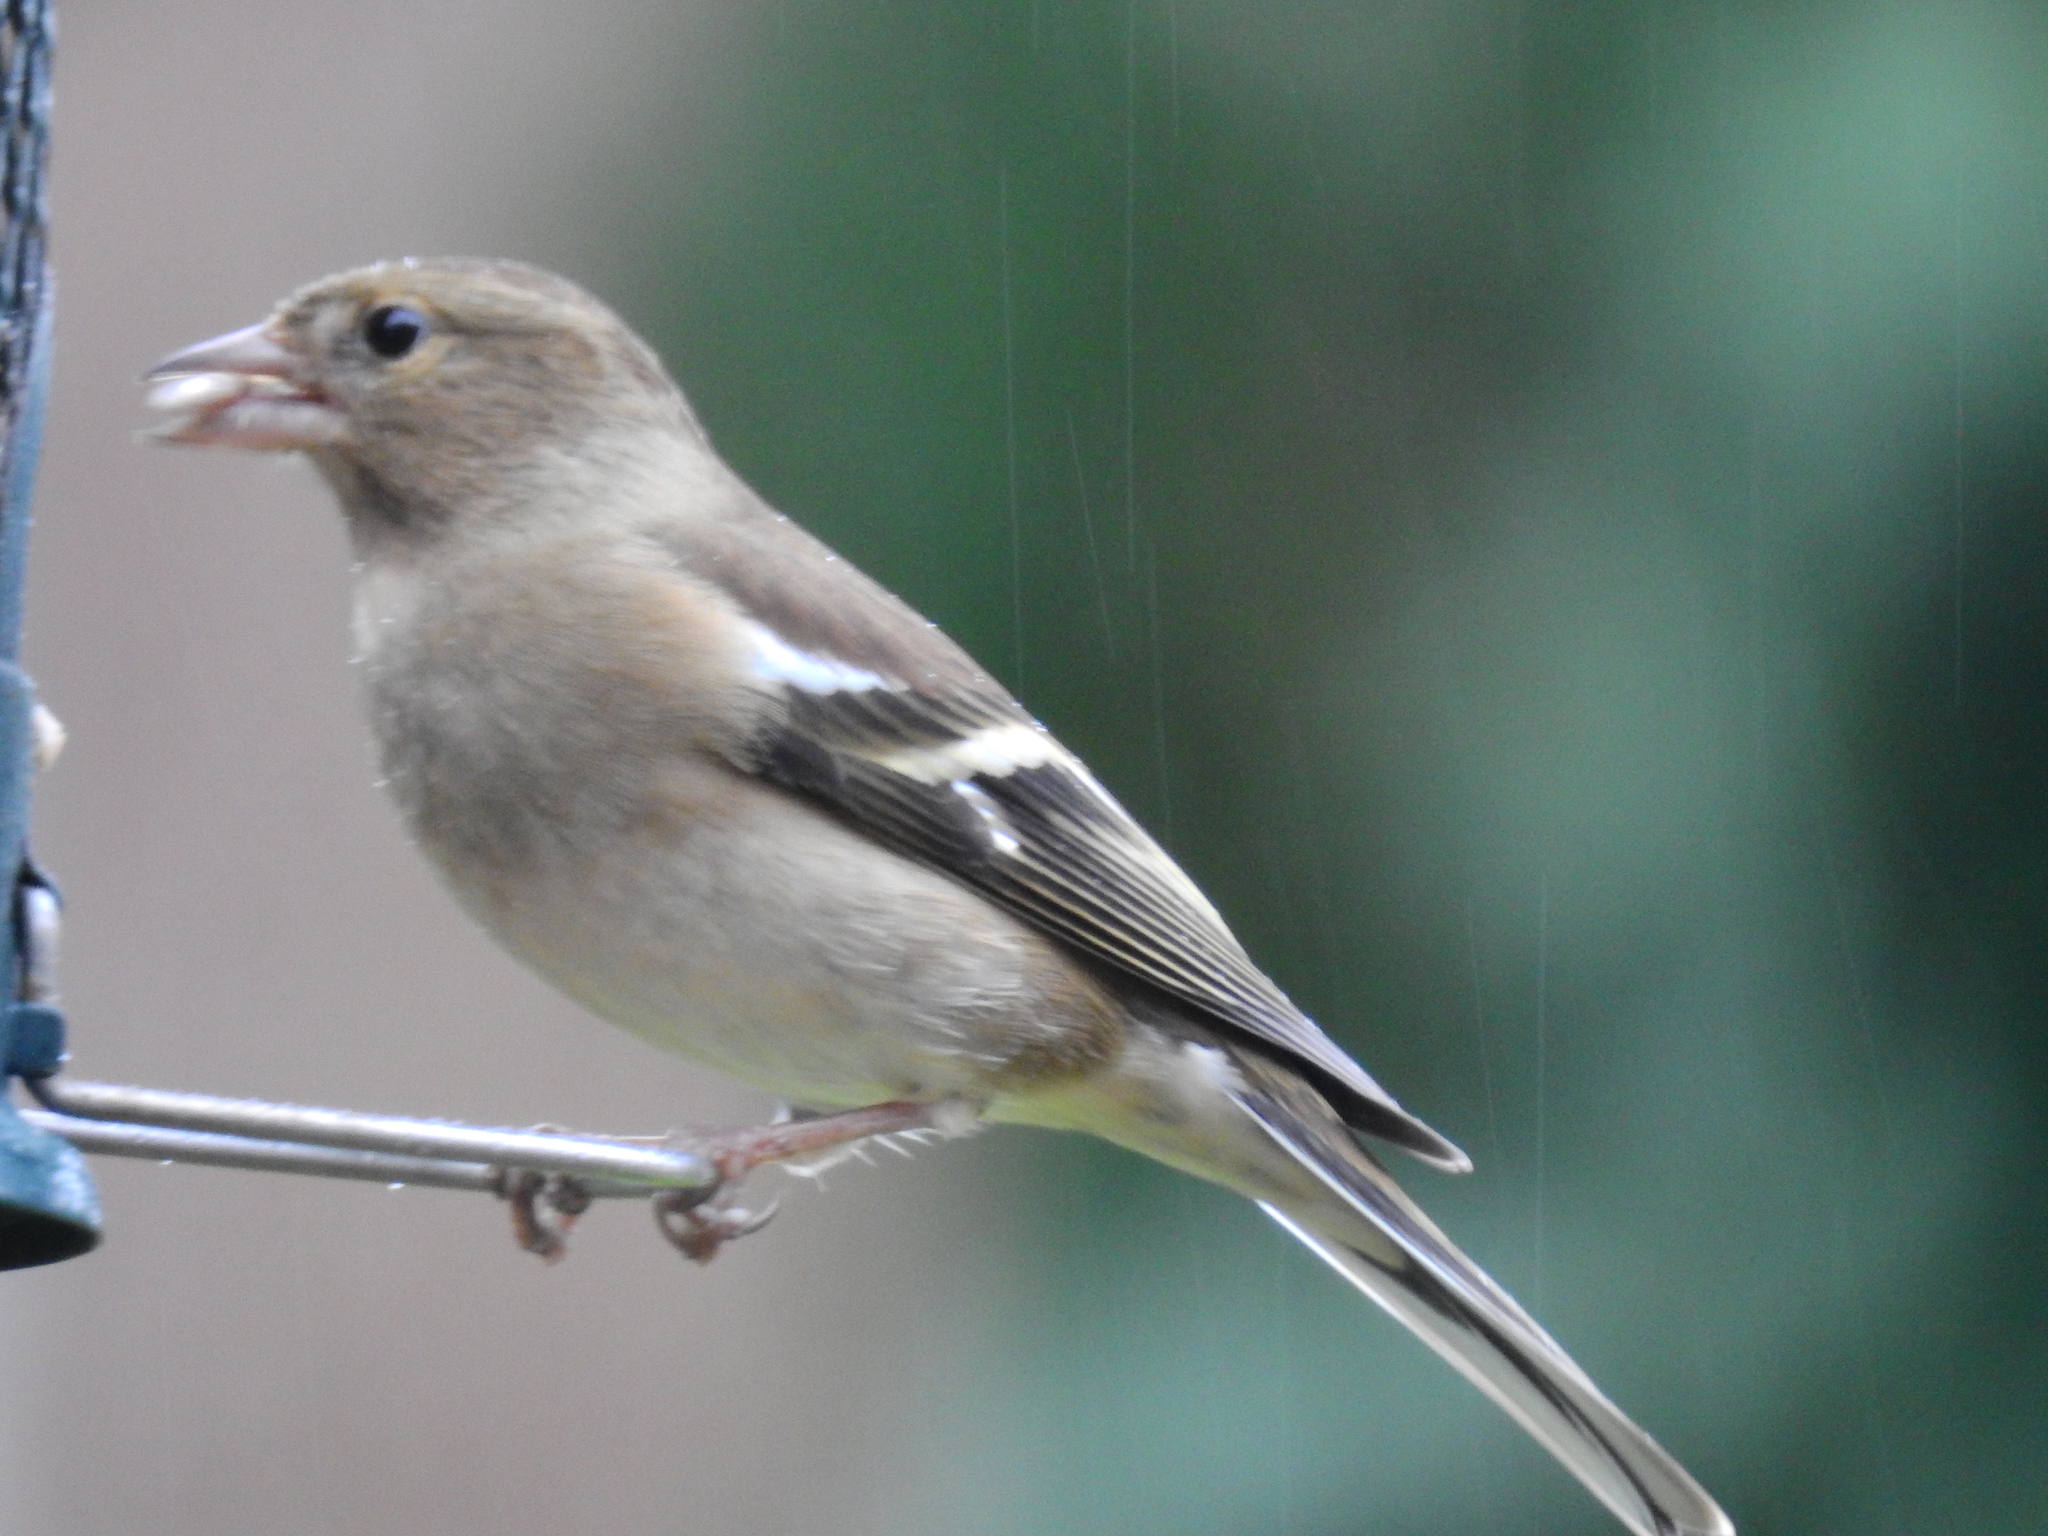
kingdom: Animalia
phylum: Chordata
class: Aves
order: Passeriformes
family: Fringillidae
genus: Fringilla
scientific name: Fringilla coelebs
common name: Common chaffinch
